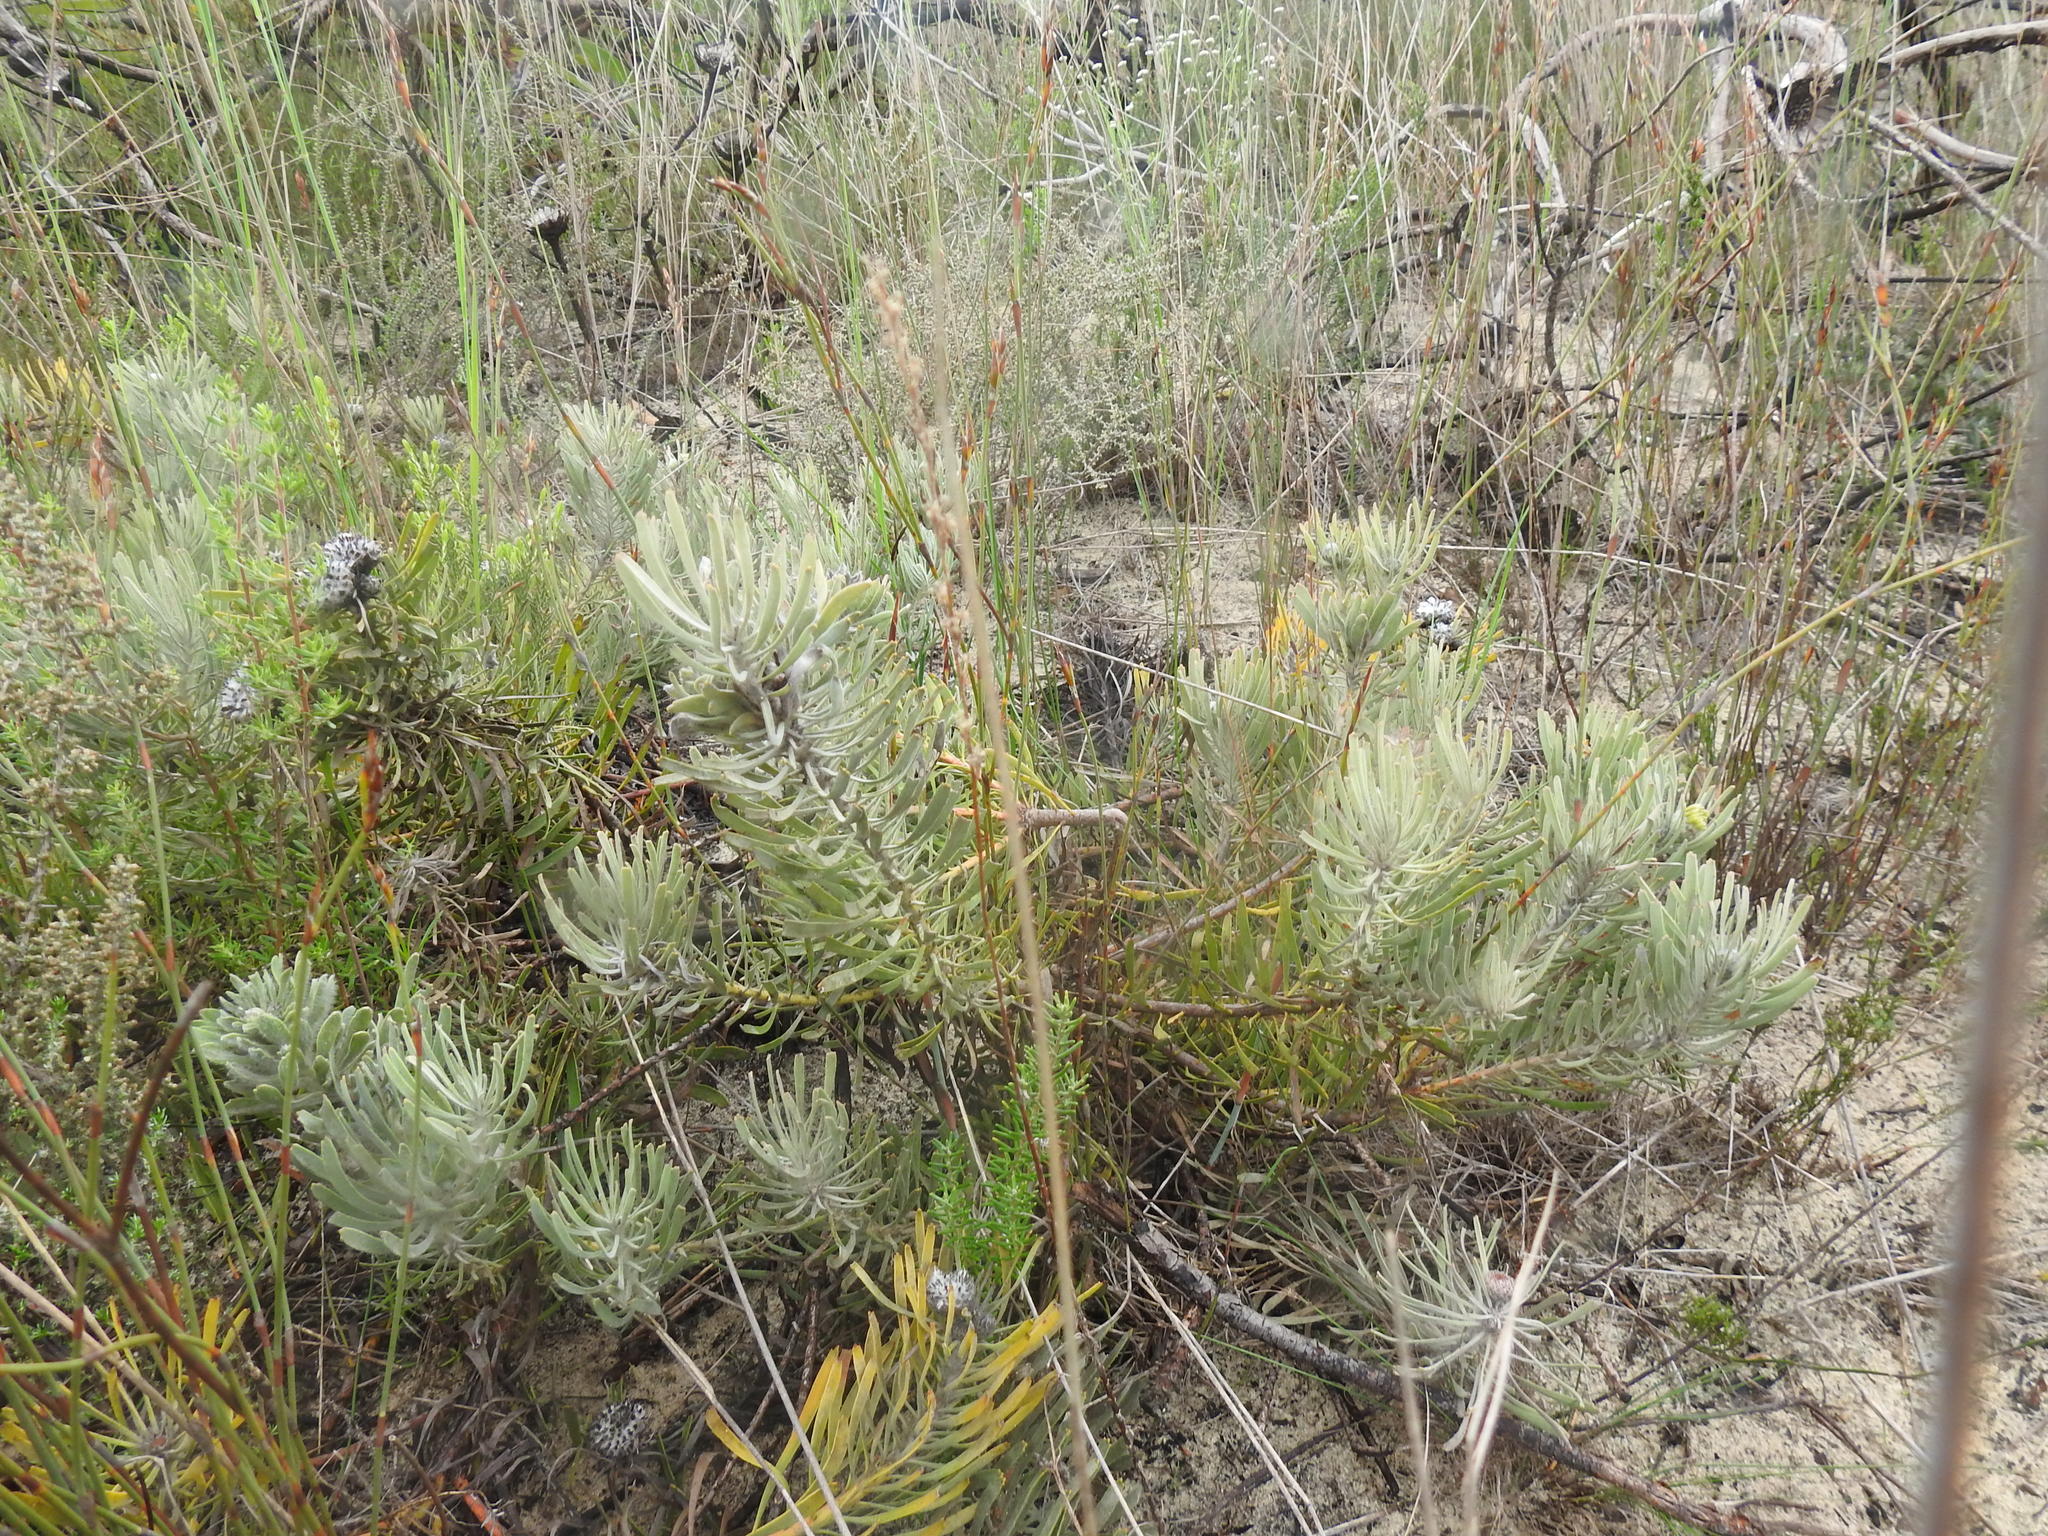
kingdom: Plantae
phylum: Tracheophyta
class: Magnoliopsida
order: Proteales
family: Proteaceae
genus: Leucospermum
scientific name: Leucospermum hypophyllocarpodendron
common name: Snakestem pincushion
